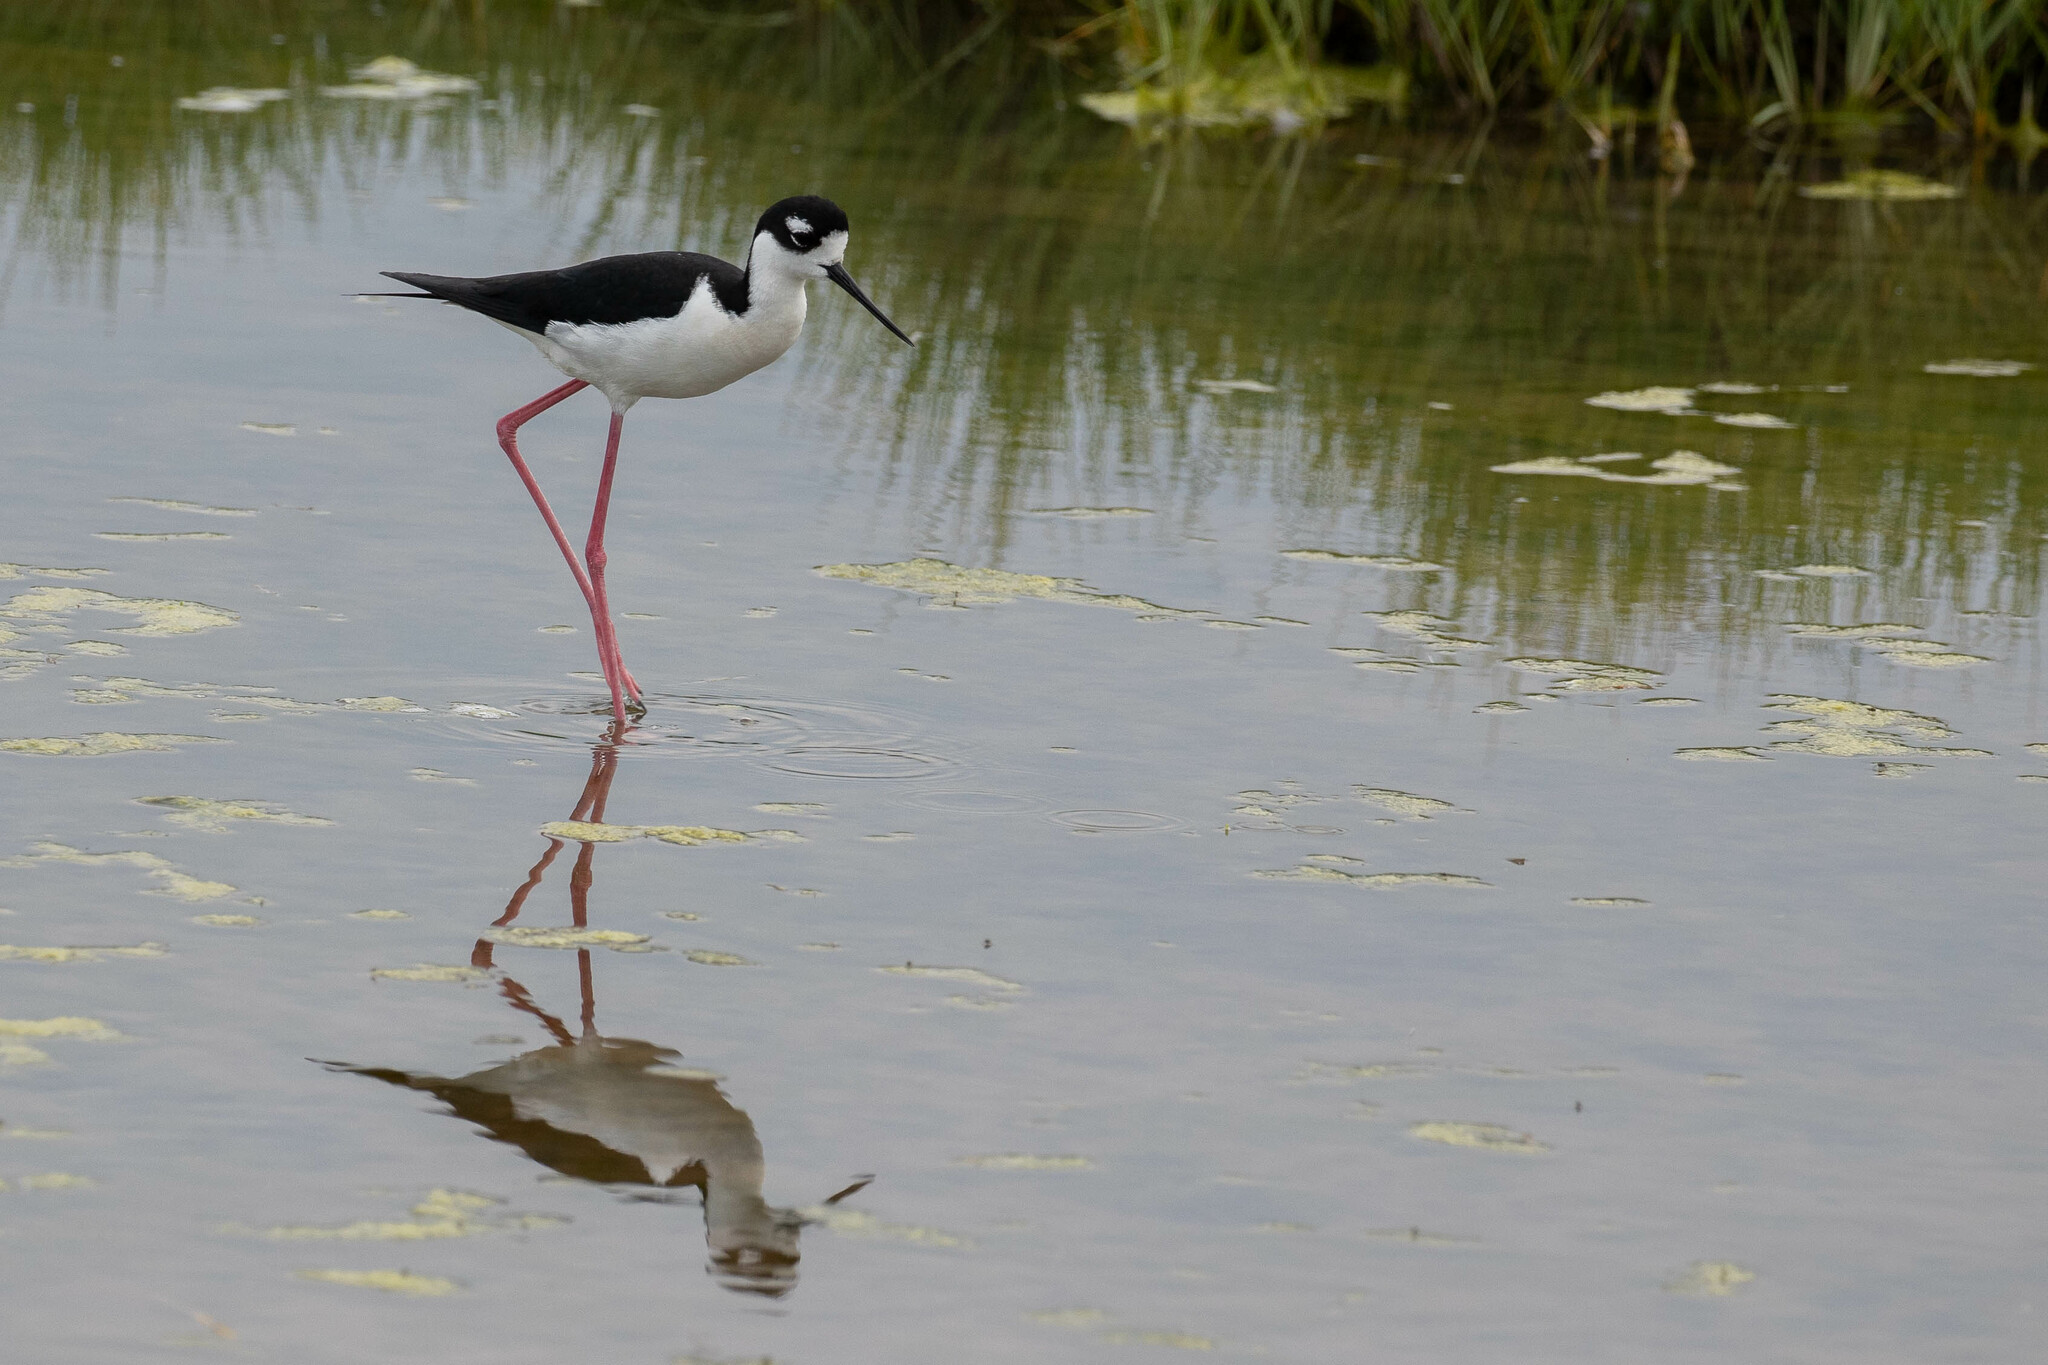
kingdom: Animalia
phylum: Chordata
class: Aves
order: Charadriiformes
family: Recurvirostridae
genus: Himantopus
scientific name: Himantopus mexicanus
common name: Black-necked stilt
